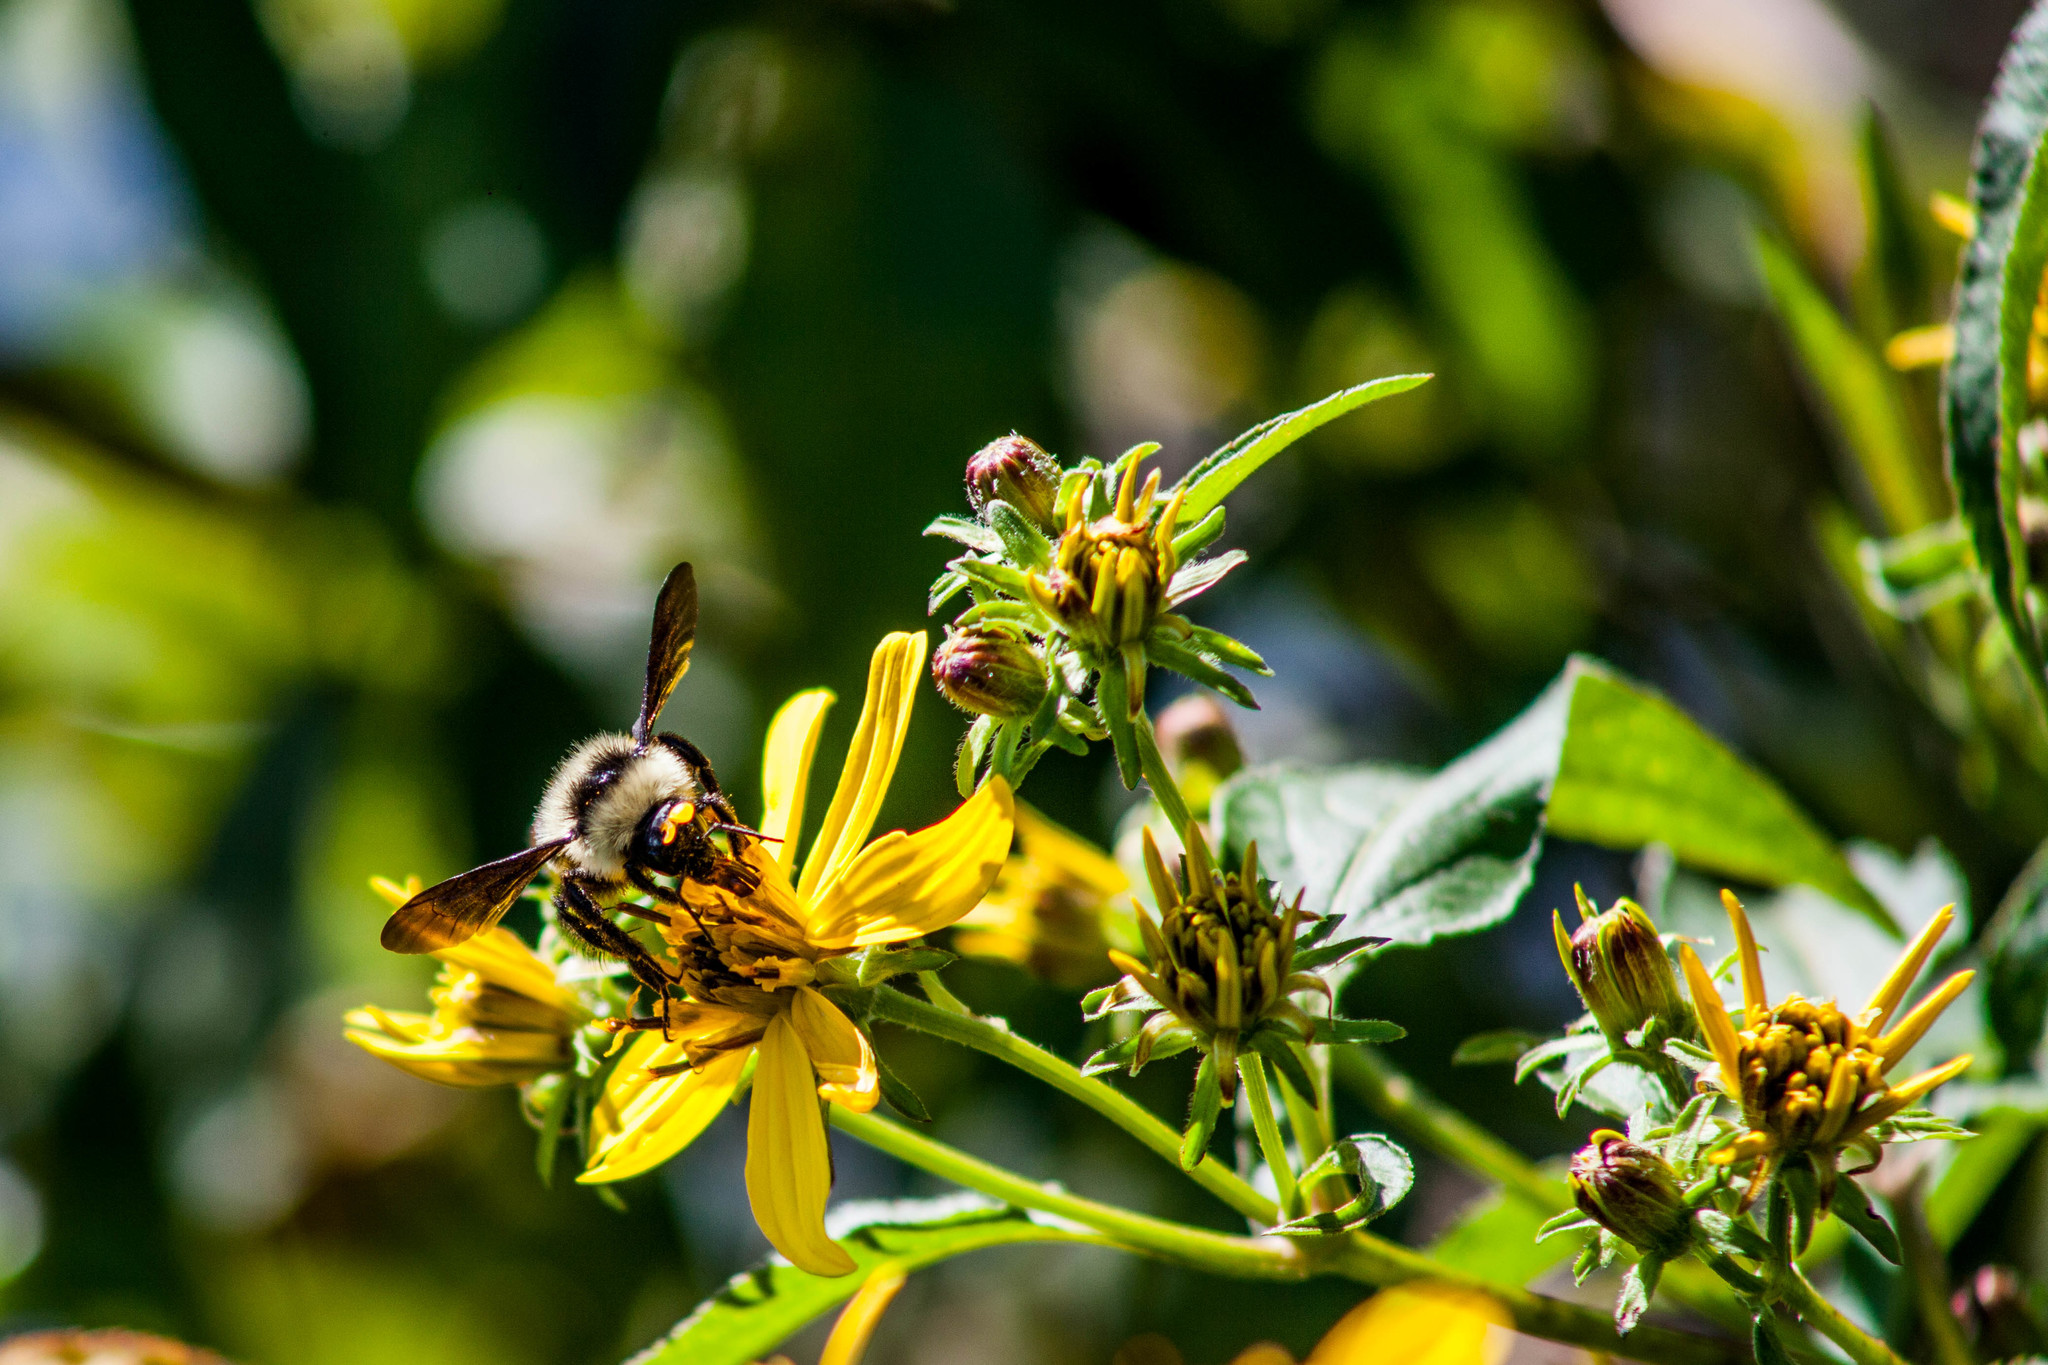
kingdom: Animalia
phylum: Arthropoda
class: Insecta
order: Hymenoptera
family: Apidae
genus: Bombus
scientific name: Bombus brasiliensis
